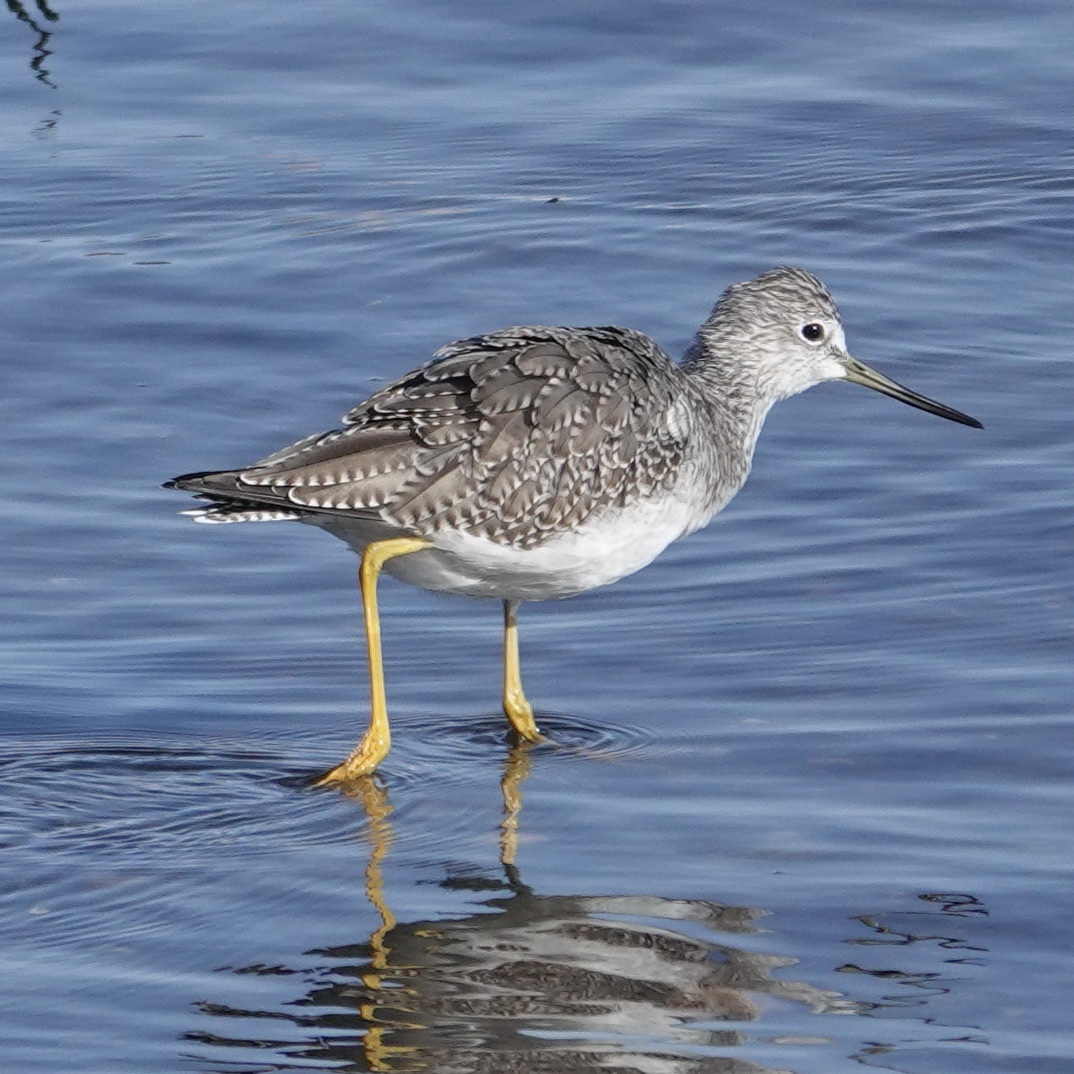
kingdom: Animalia
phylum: Chordata
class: Aves
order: Charadriiformes
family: Scolopacidae
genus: Tringa
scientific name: Tringa melanoleuca
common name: Greater yellowlegs
